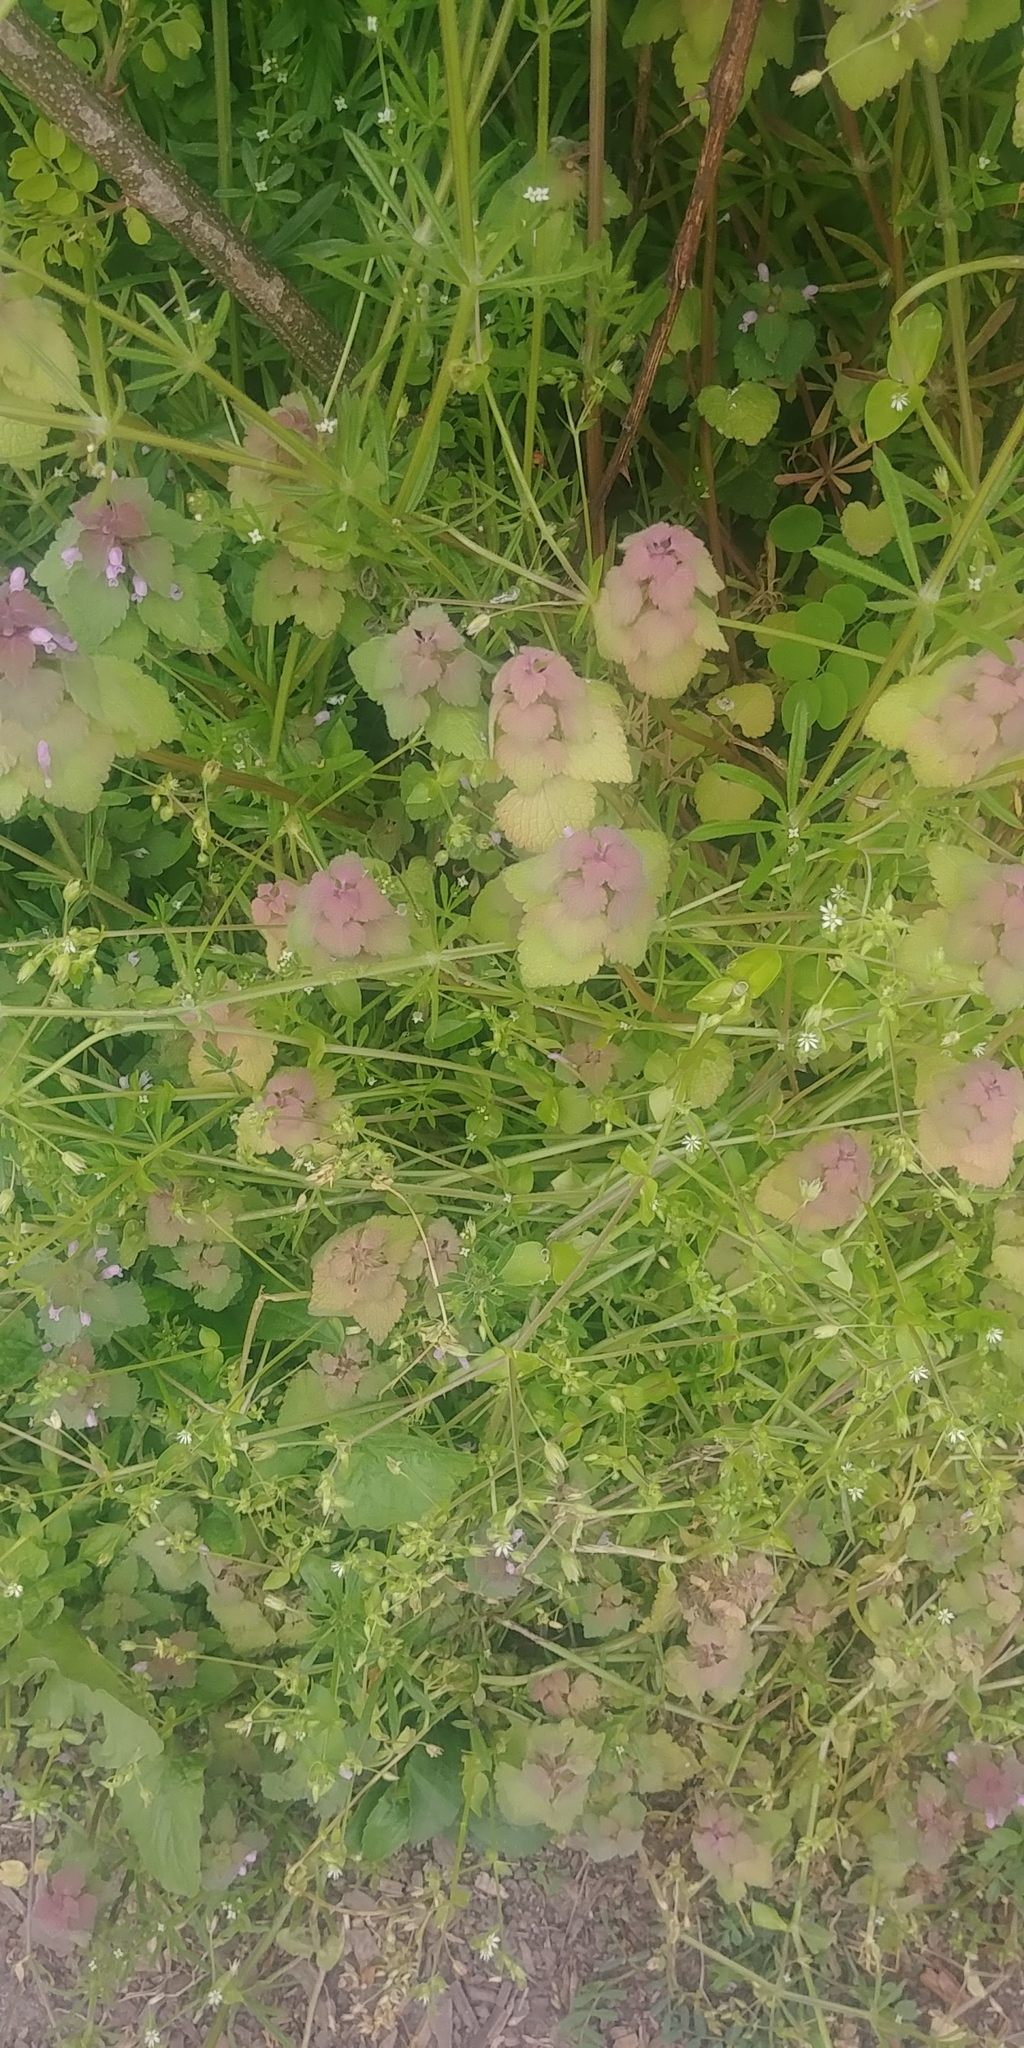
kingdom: Plantae
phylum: Tracheophyta
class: Magnoliopsida
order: Lamiales
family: Lamiaceae
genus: Lamium
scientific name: Lamium purpureum
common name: Red dead-nettle
